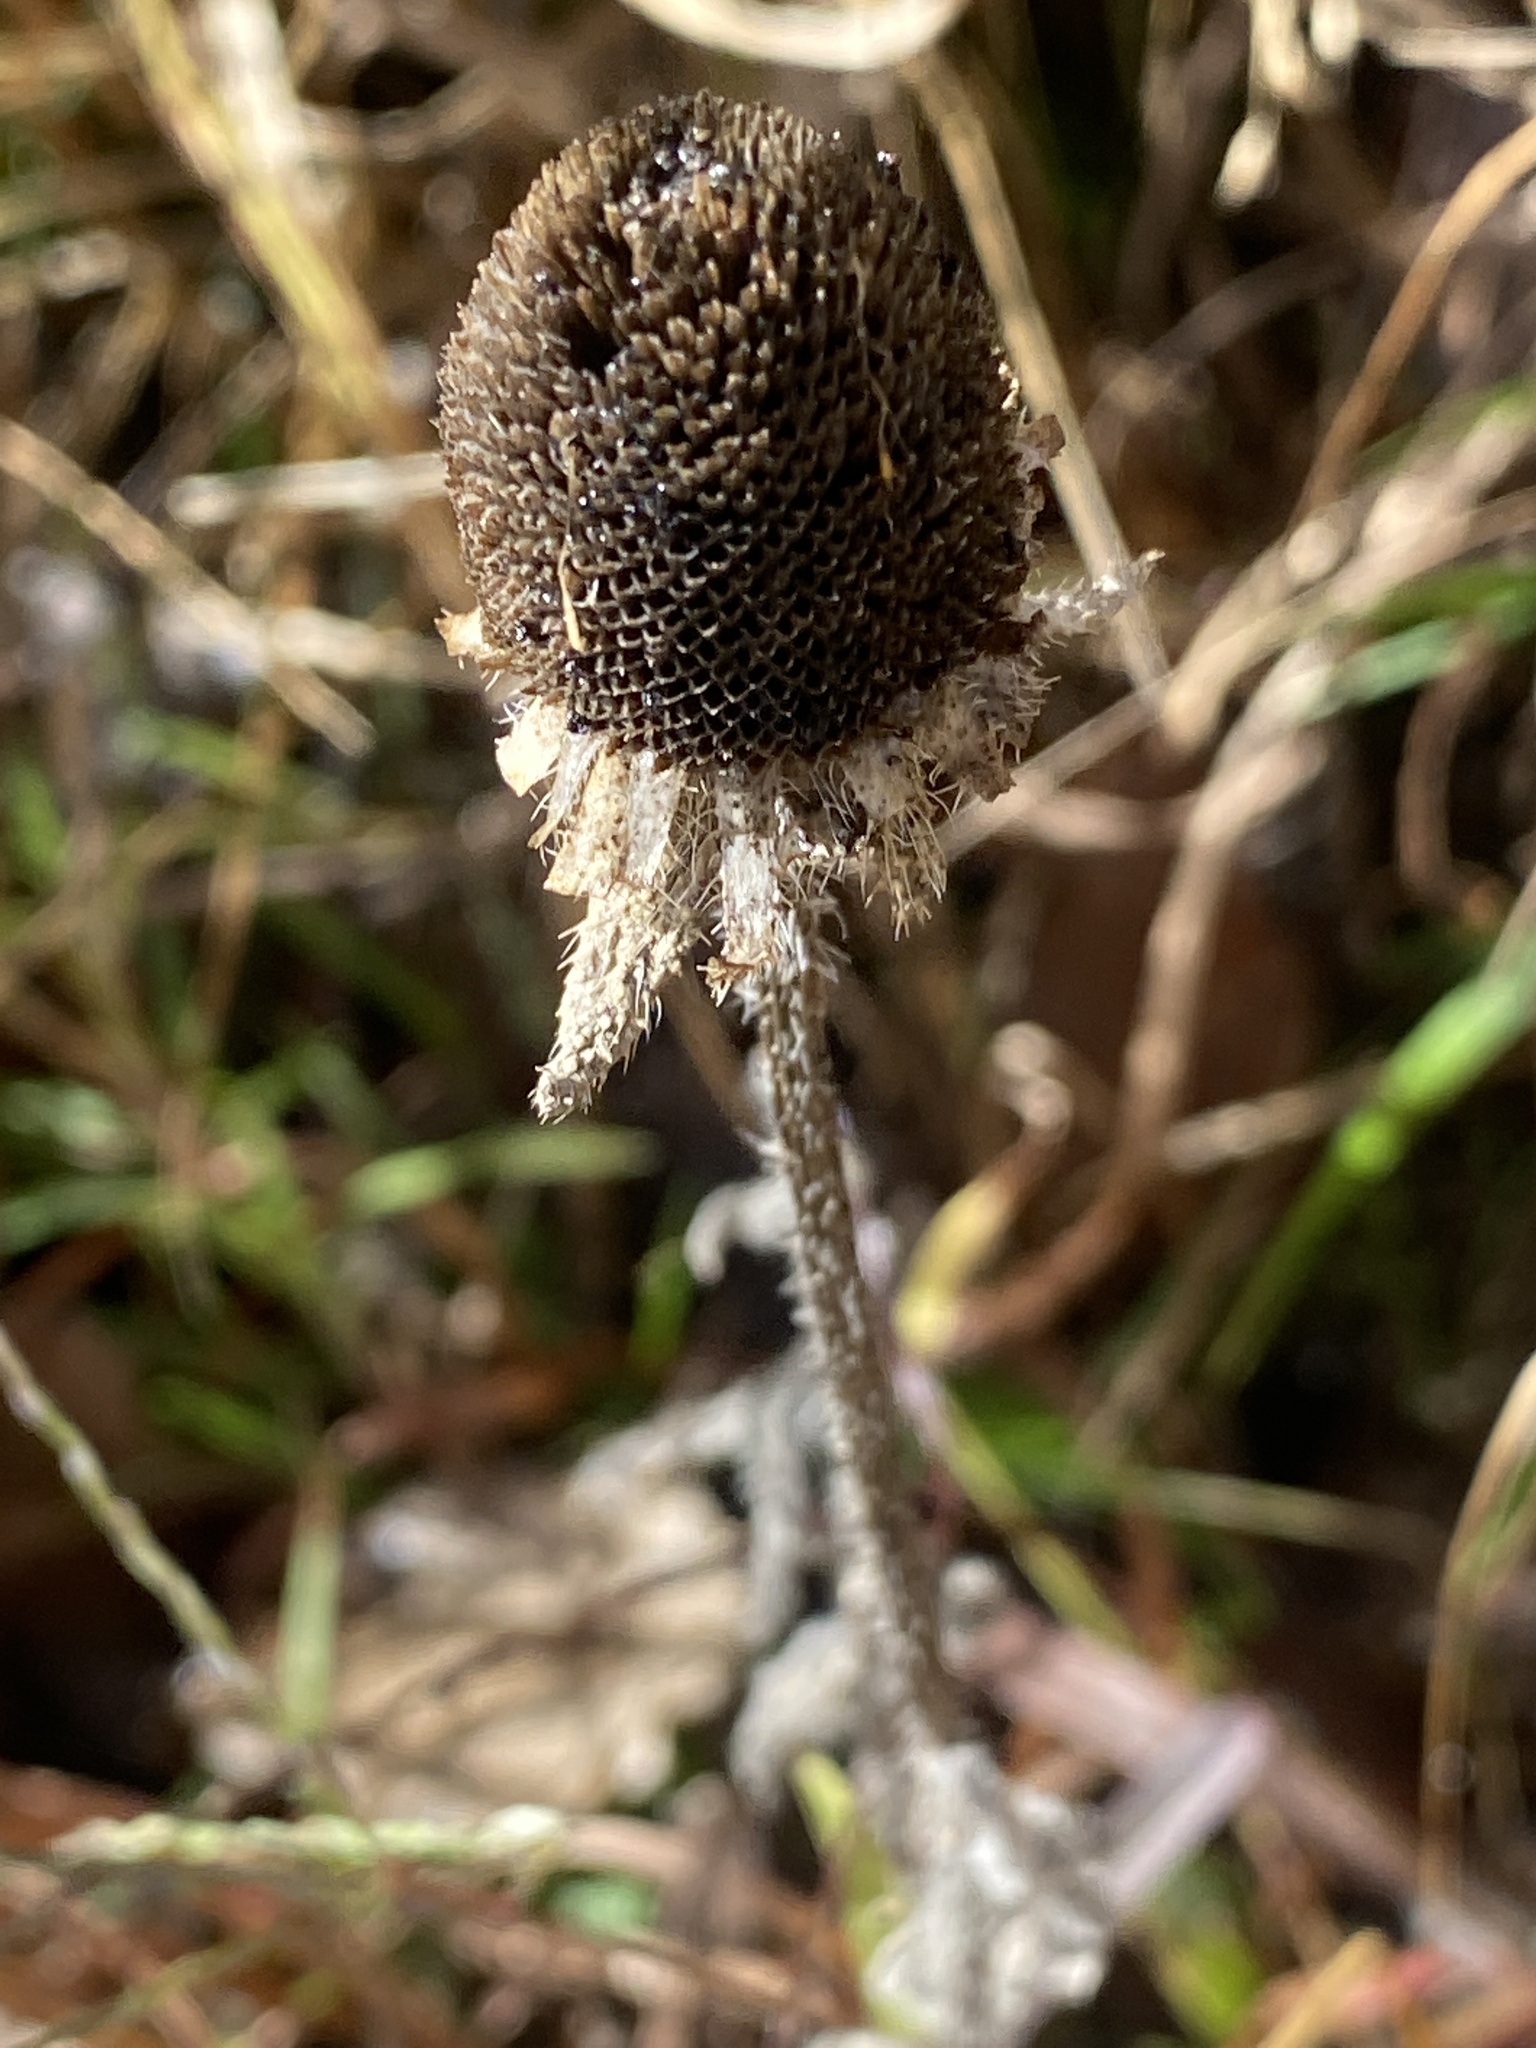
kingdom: Plantae
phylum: Tracheophyta
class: Magnoliopsida
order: Asterales
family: Asteraceae
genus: Rudbeckia
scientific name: Rudbeckia hirta
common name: Black-eyed-susan
